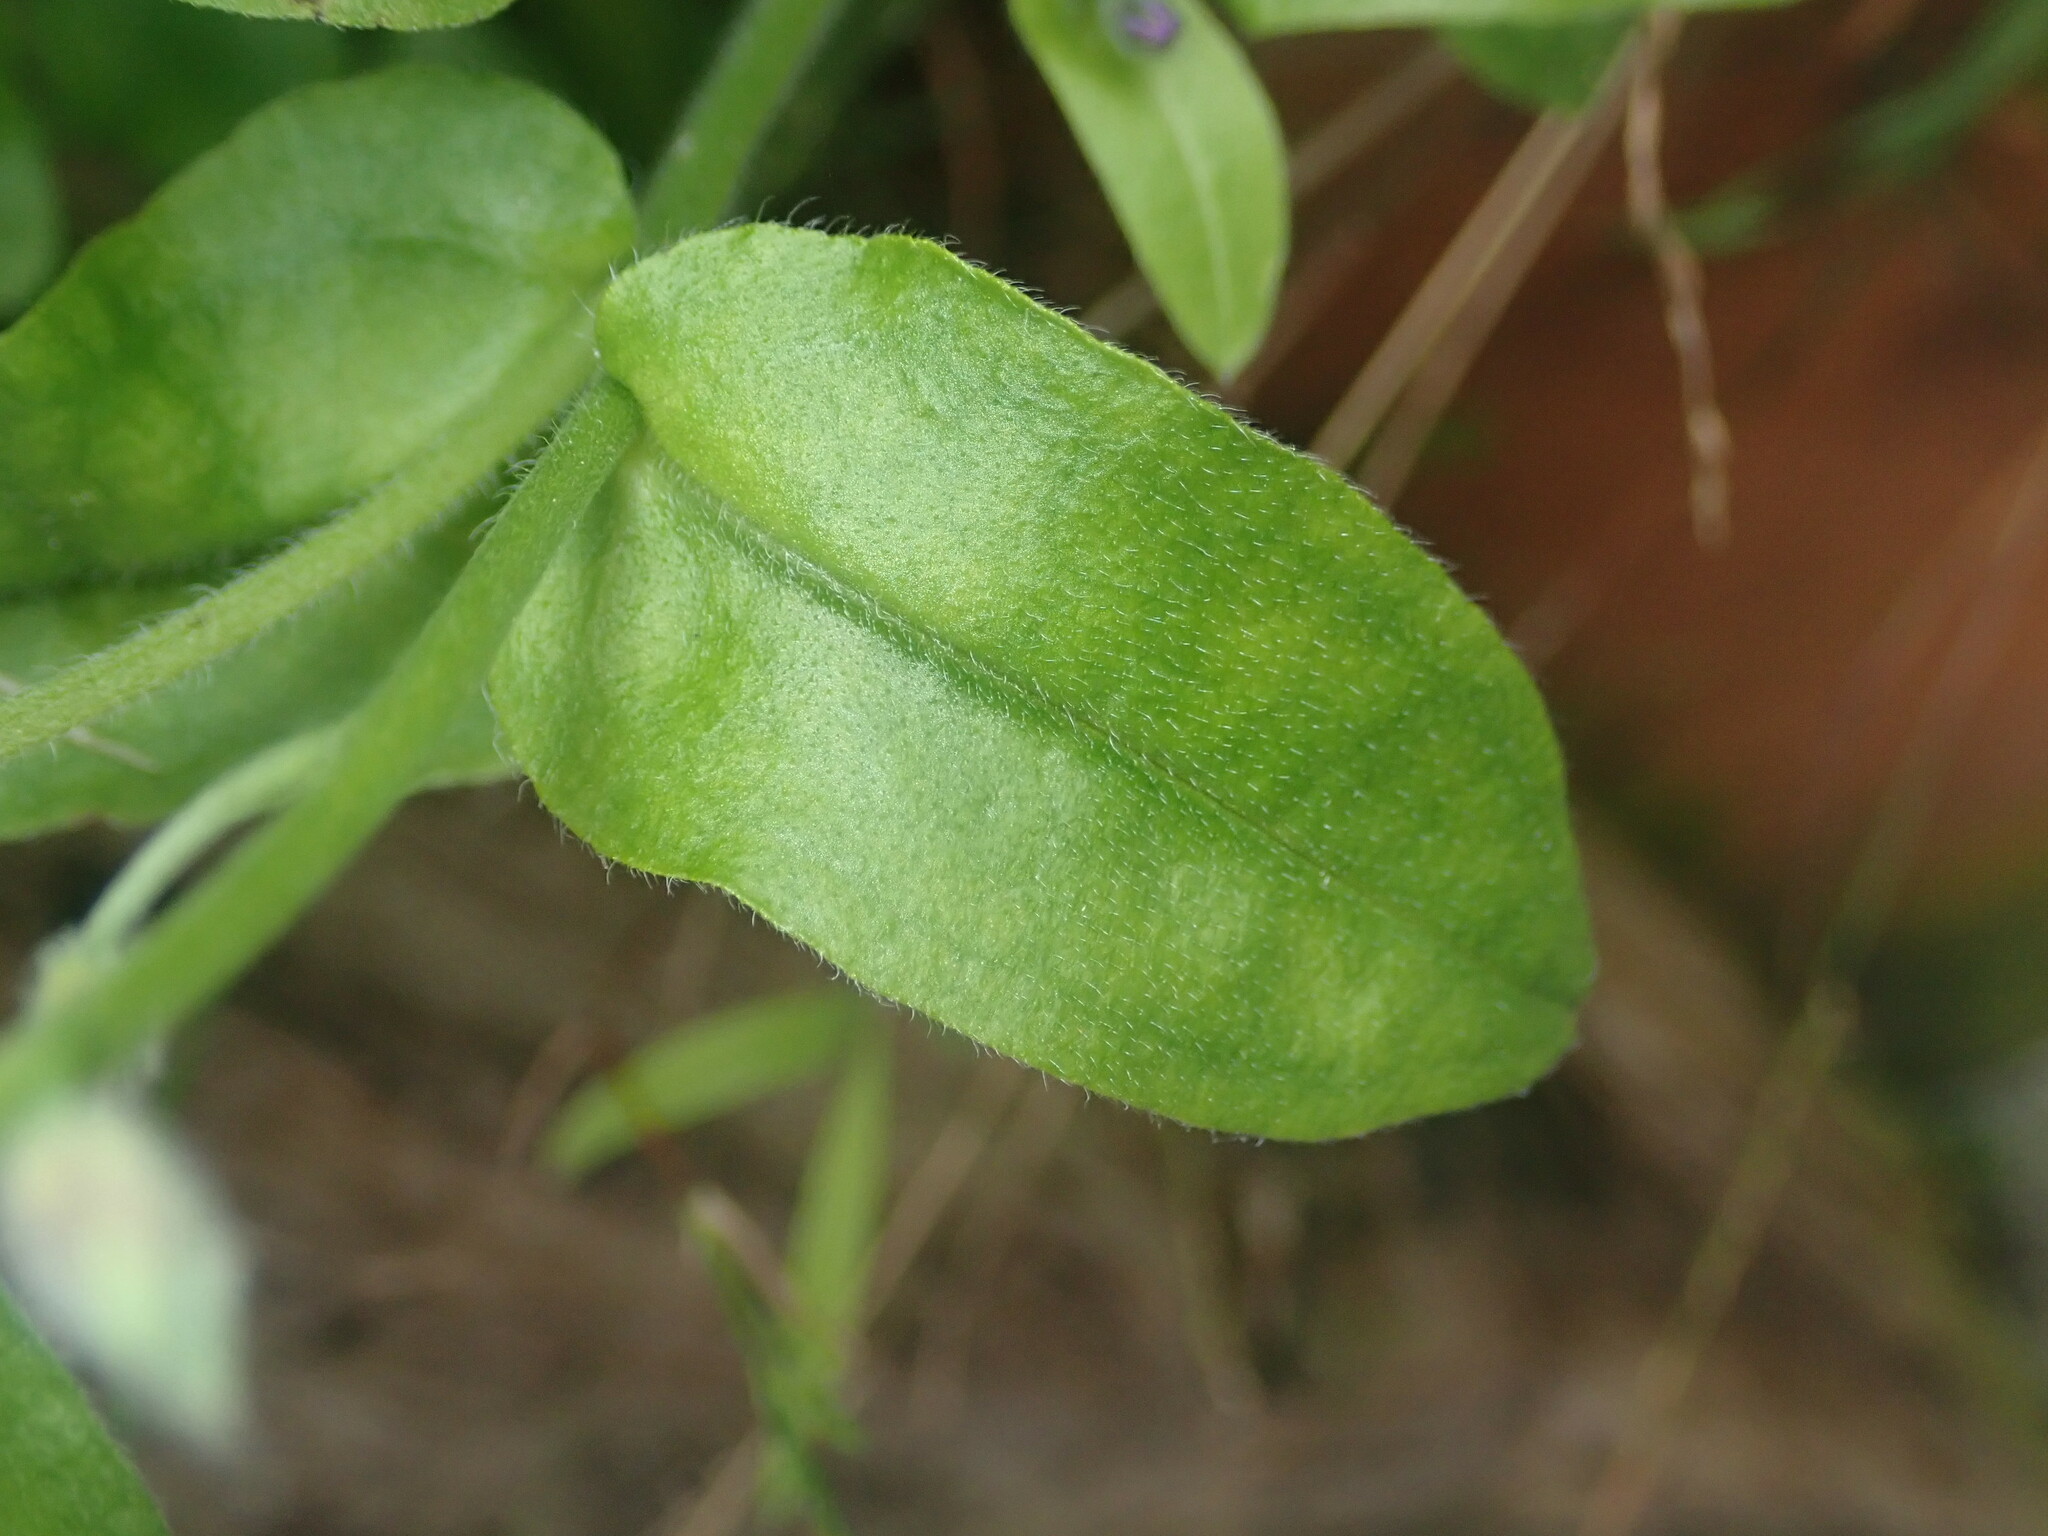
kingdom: Plantae
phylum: Tracheophyta
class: Magnoliopsida
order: Boraginales
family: Boraginaceae
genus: Myosotis
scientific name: Myosotis latifolia
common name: Broadleaf forget-me-not
